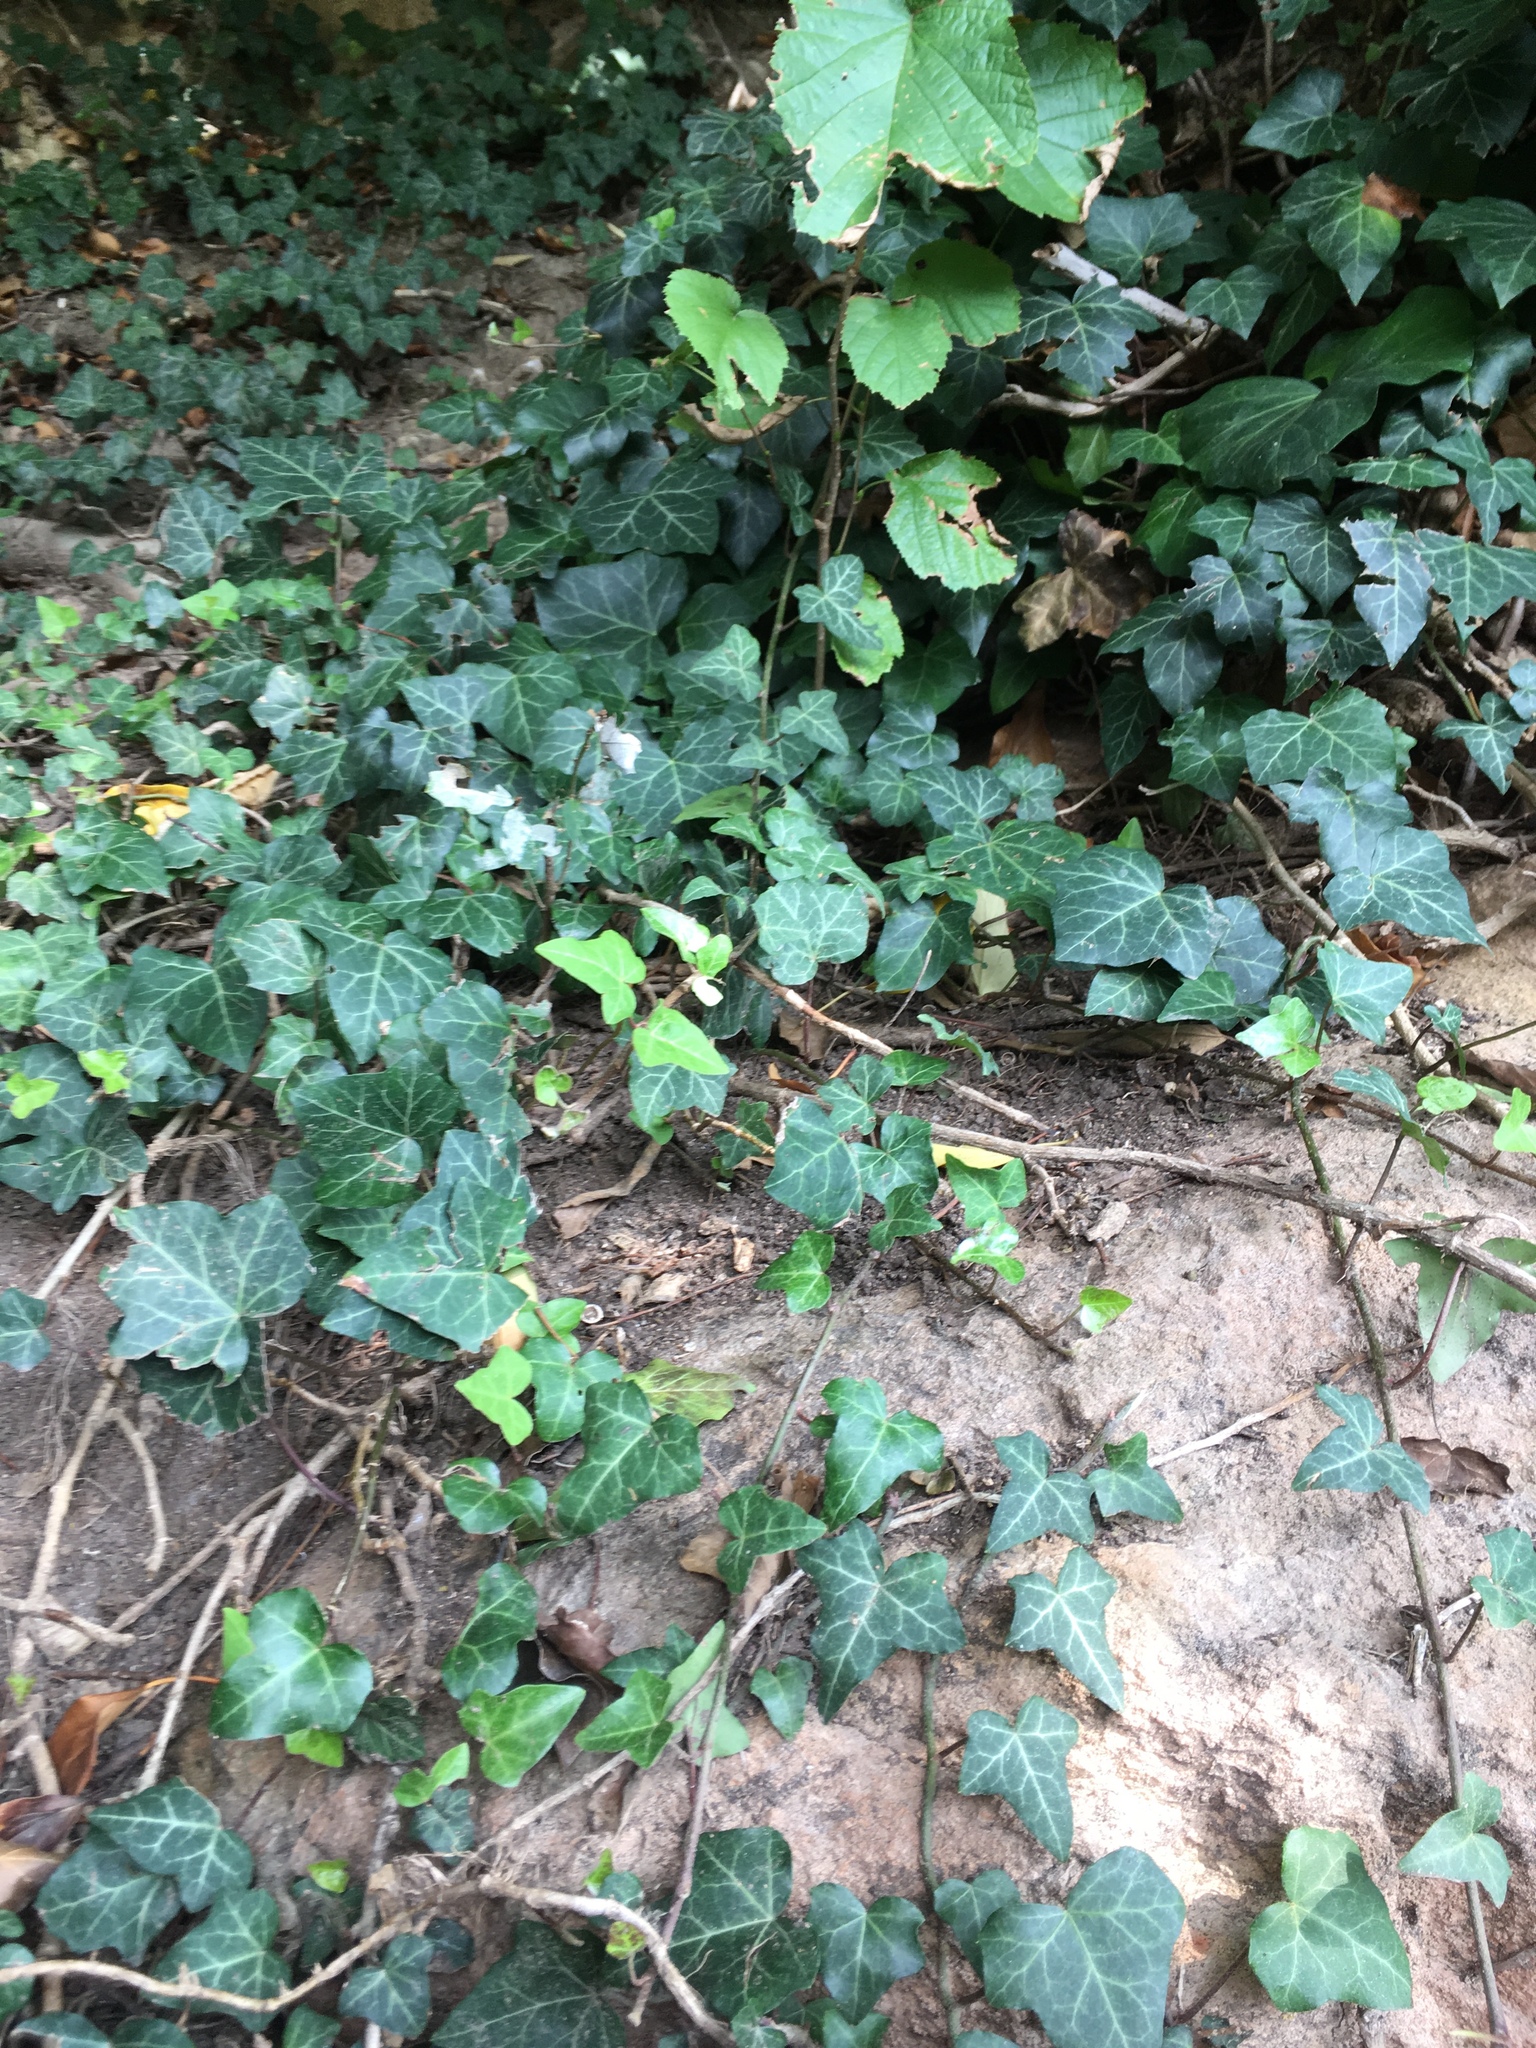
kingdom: Plantae
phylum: Tracheophyta
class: Magnoliopsida
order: Apiales
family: Araliaceae
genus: Hedera
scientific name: Hedera helix
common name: Ivy
